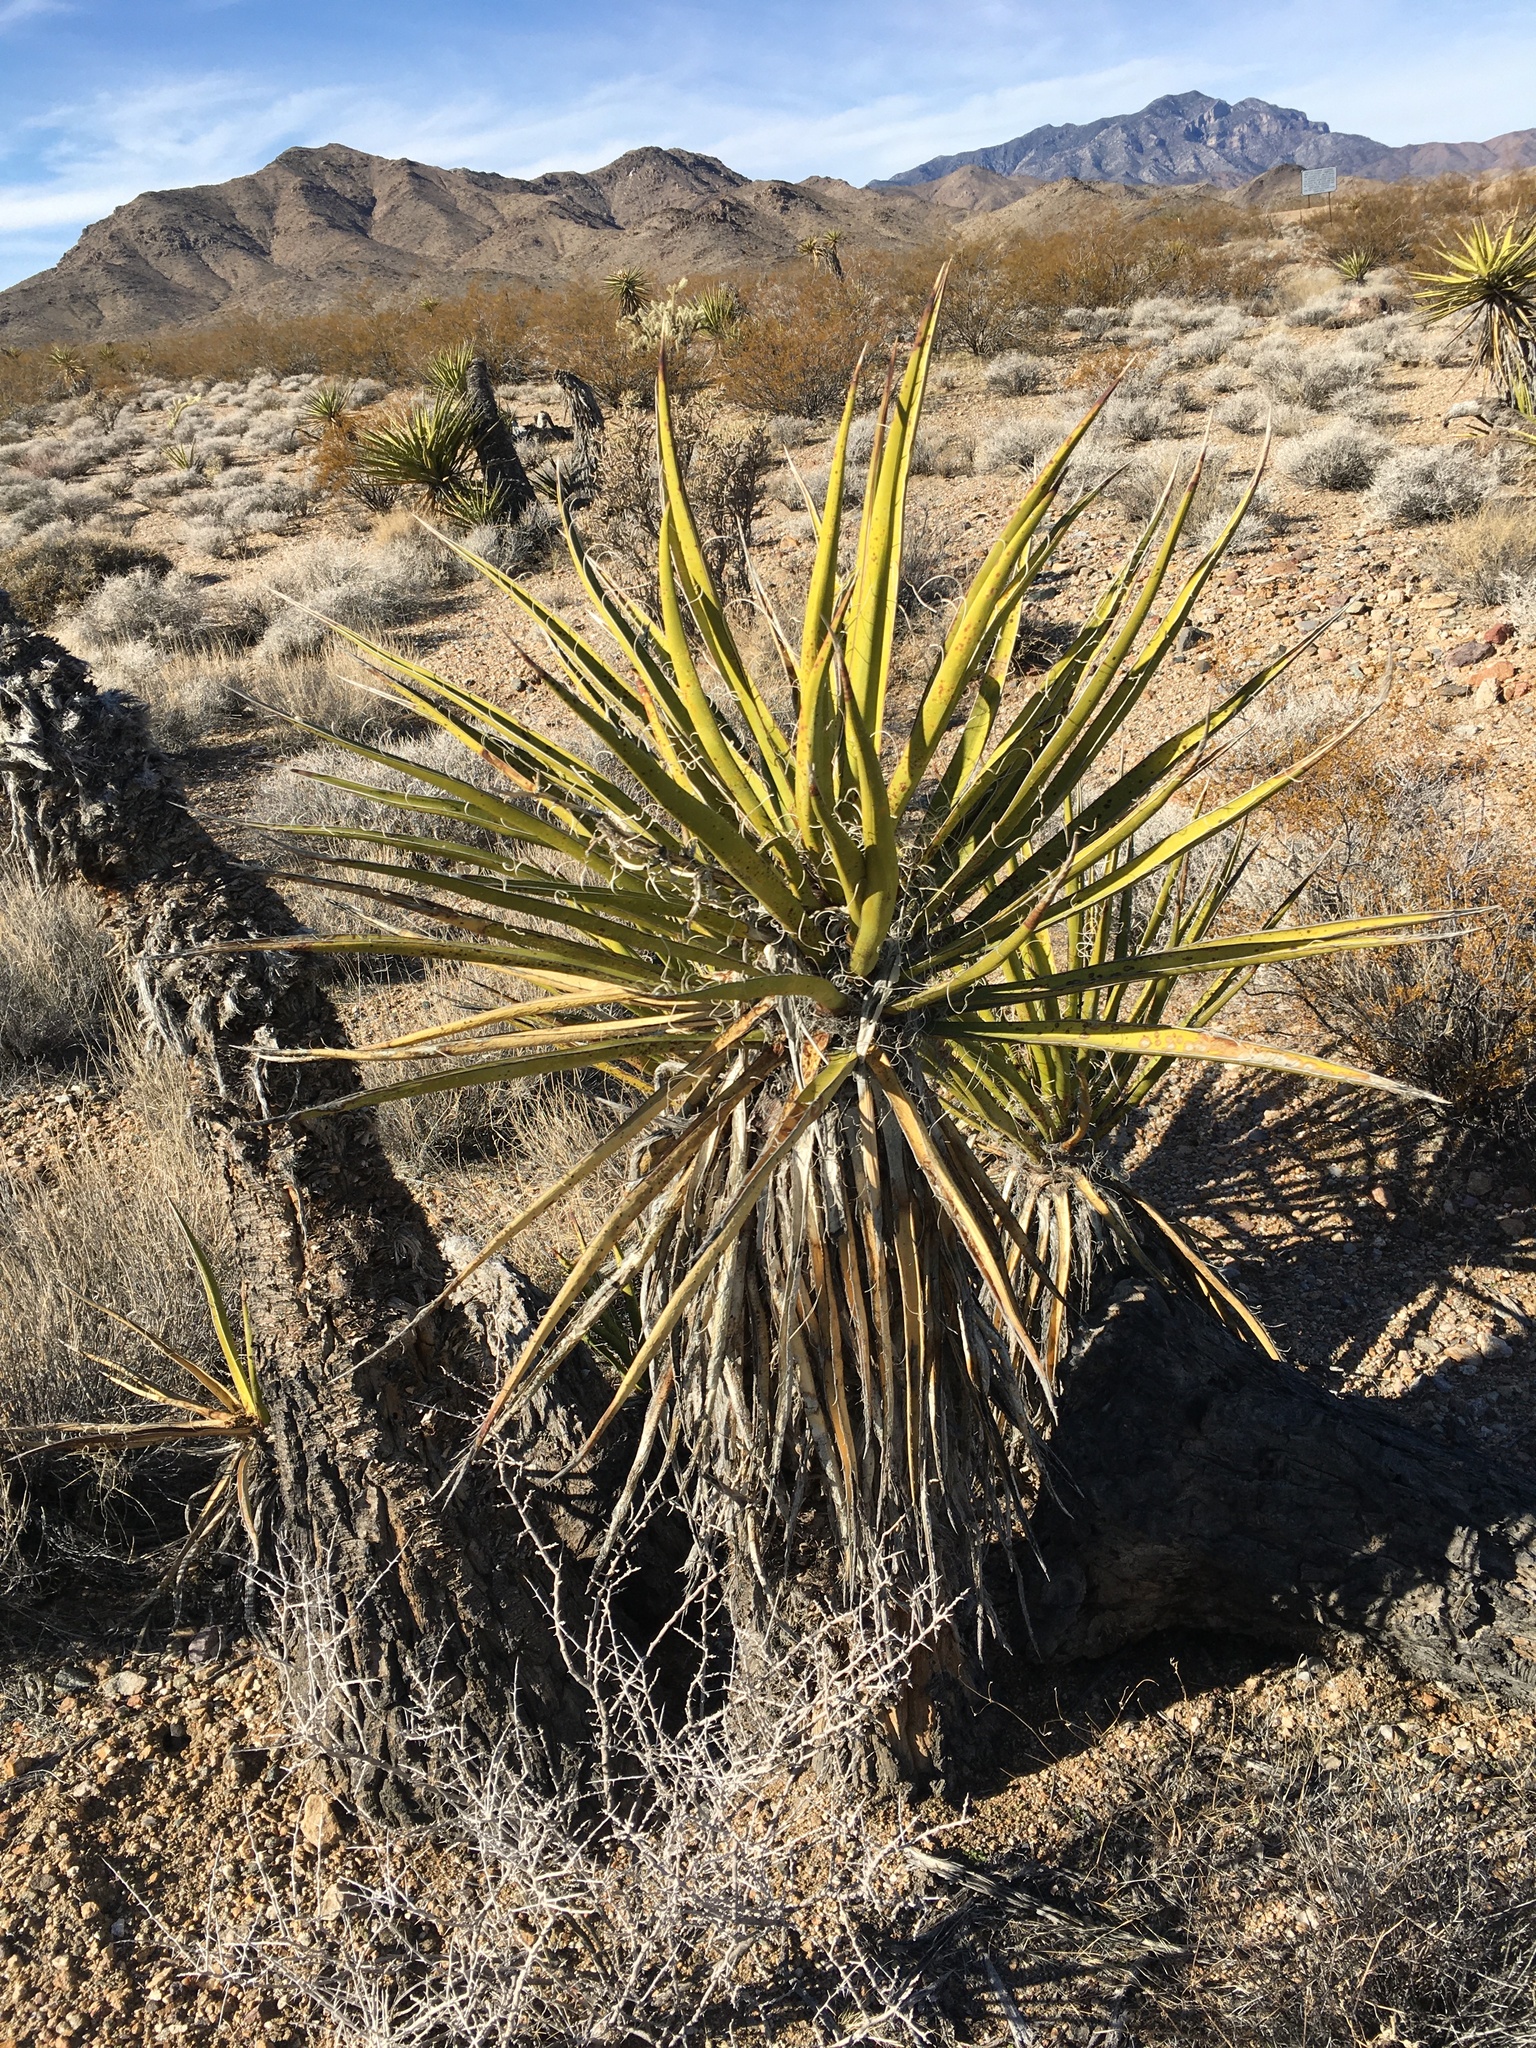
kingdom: Plantae
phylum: Tracheophyta
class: Liliopsida
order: Asparagales
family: Asparagaceae
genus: Yucca
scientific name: Yucca schidigera
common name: Mojave yucca
